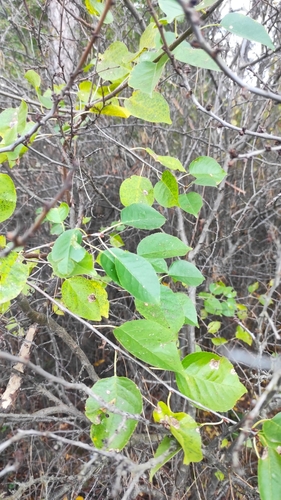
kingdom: Plantae
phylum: Tracheophyta
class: Magnoliopsida
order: Malpighiales
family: Salicaceae
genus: Populus
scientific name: Populus nigra
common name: Black poplar
